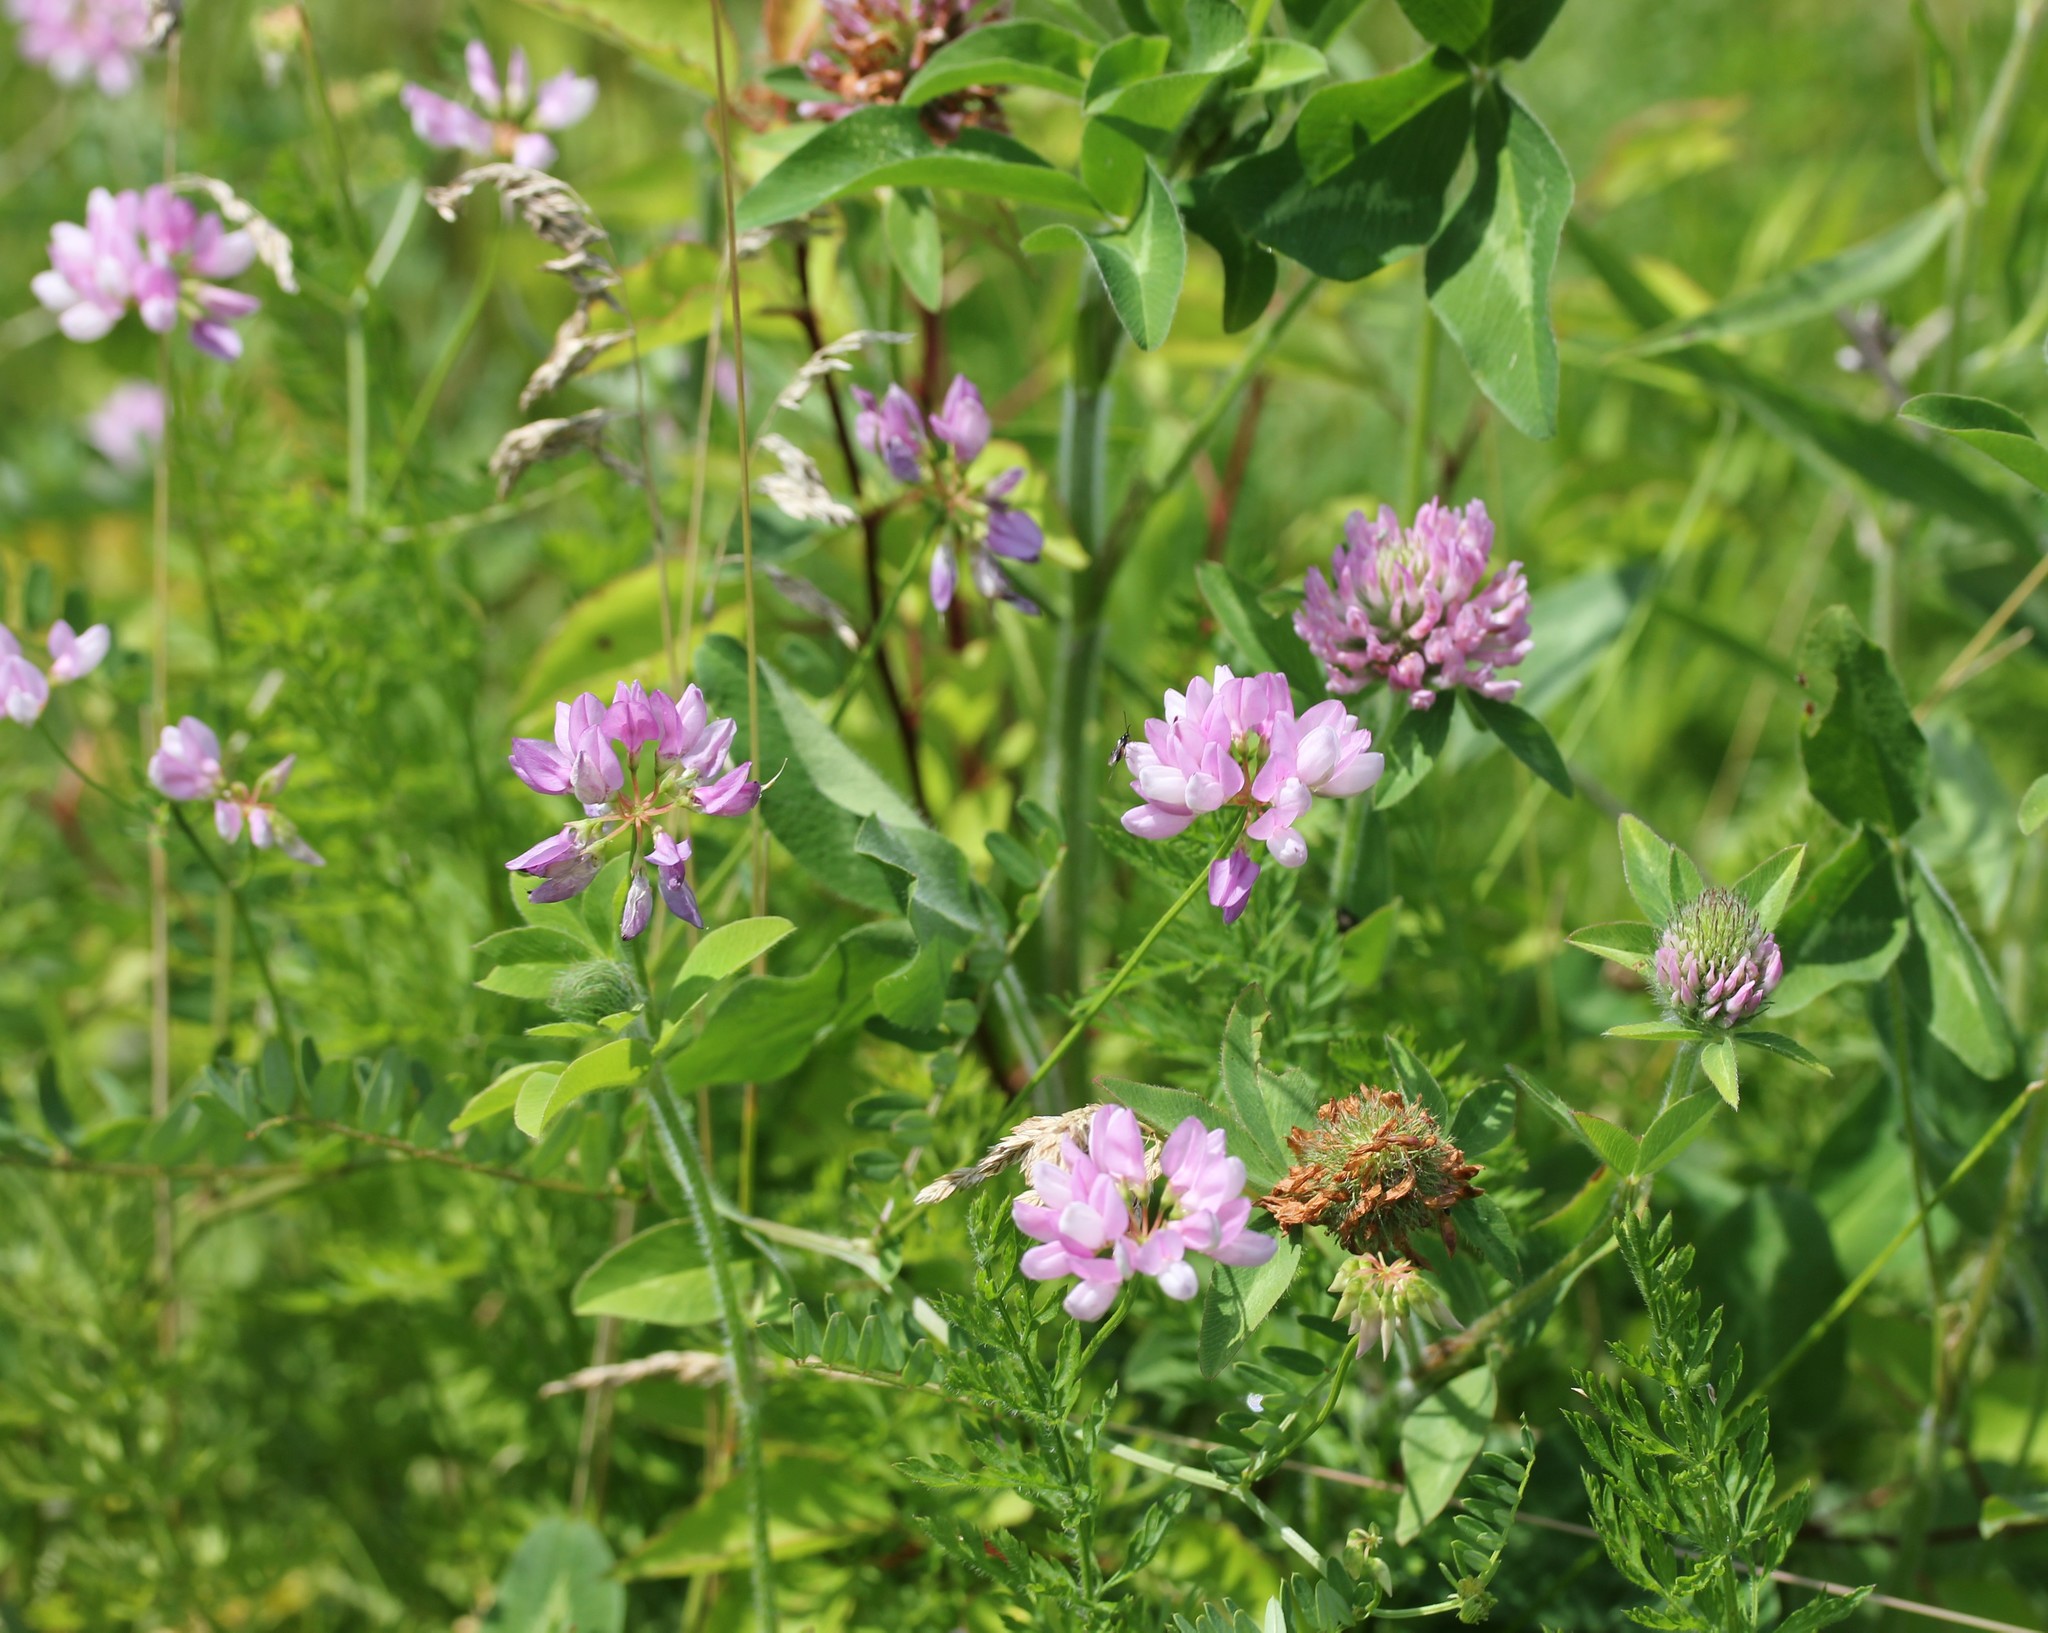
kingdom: Plantae
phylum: Tracheophyta
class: Magnoliopsida
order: Fabales
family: Fabaceae
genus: Trifolium
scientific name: Trifolium pratense
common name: Red clover
